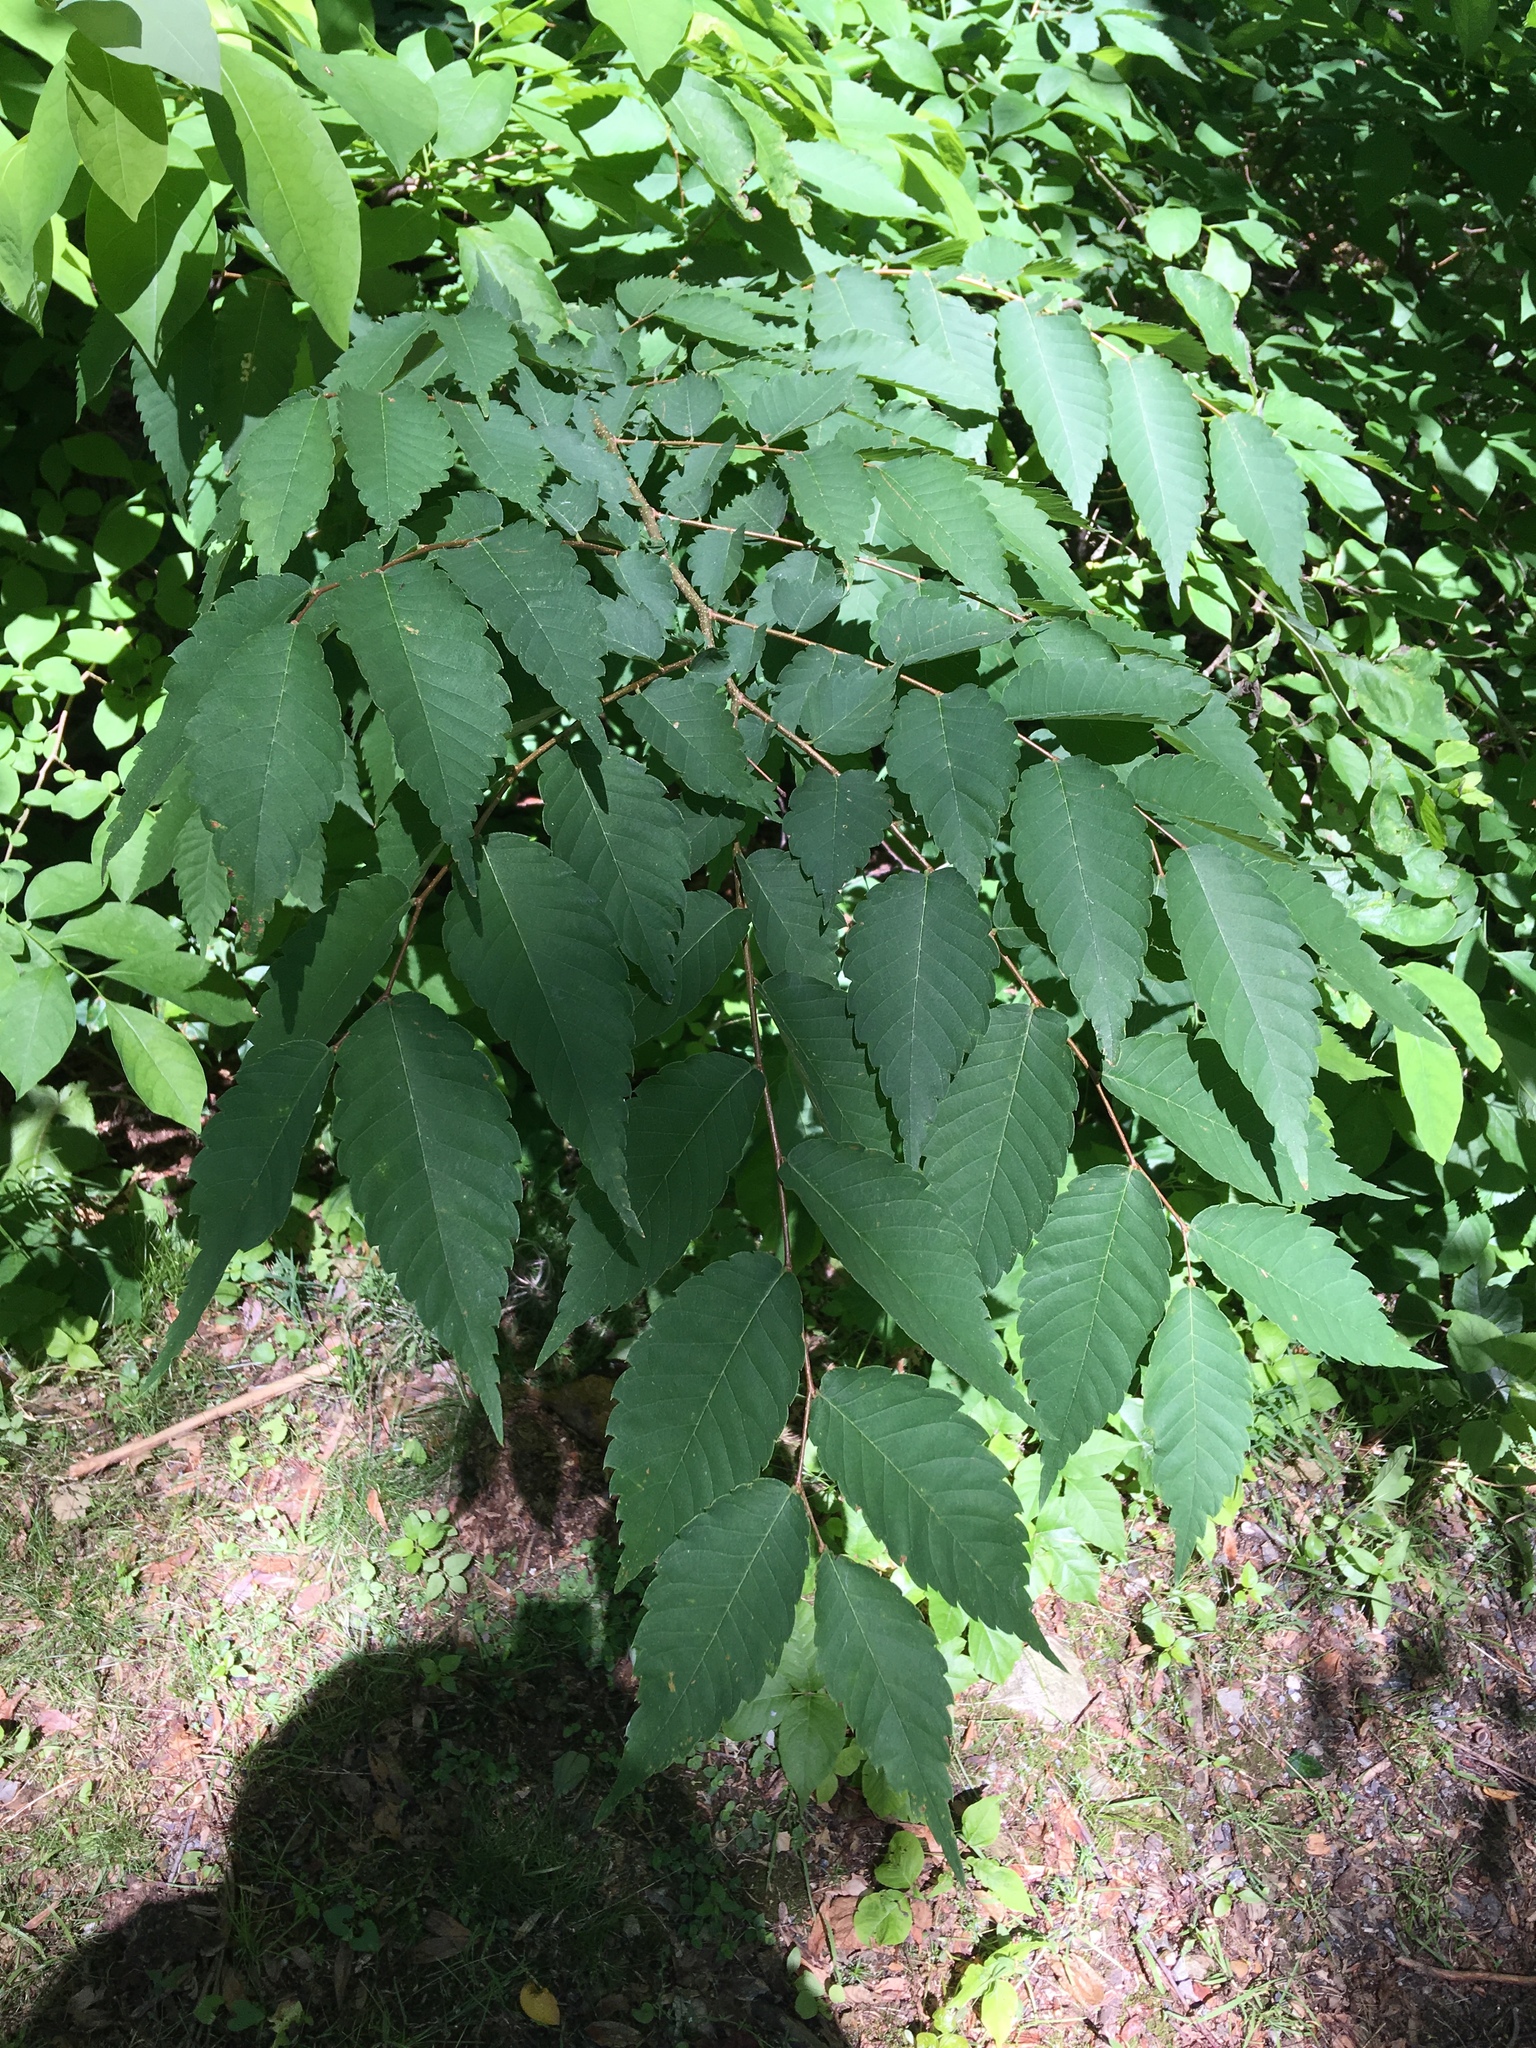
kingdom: Plantae
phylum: Tracheophyta
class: Magnoliopsida
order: Rosales
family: Ulmaceae
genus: Zelkova
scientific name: Zelkova serrata
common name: Japanese zelkova
